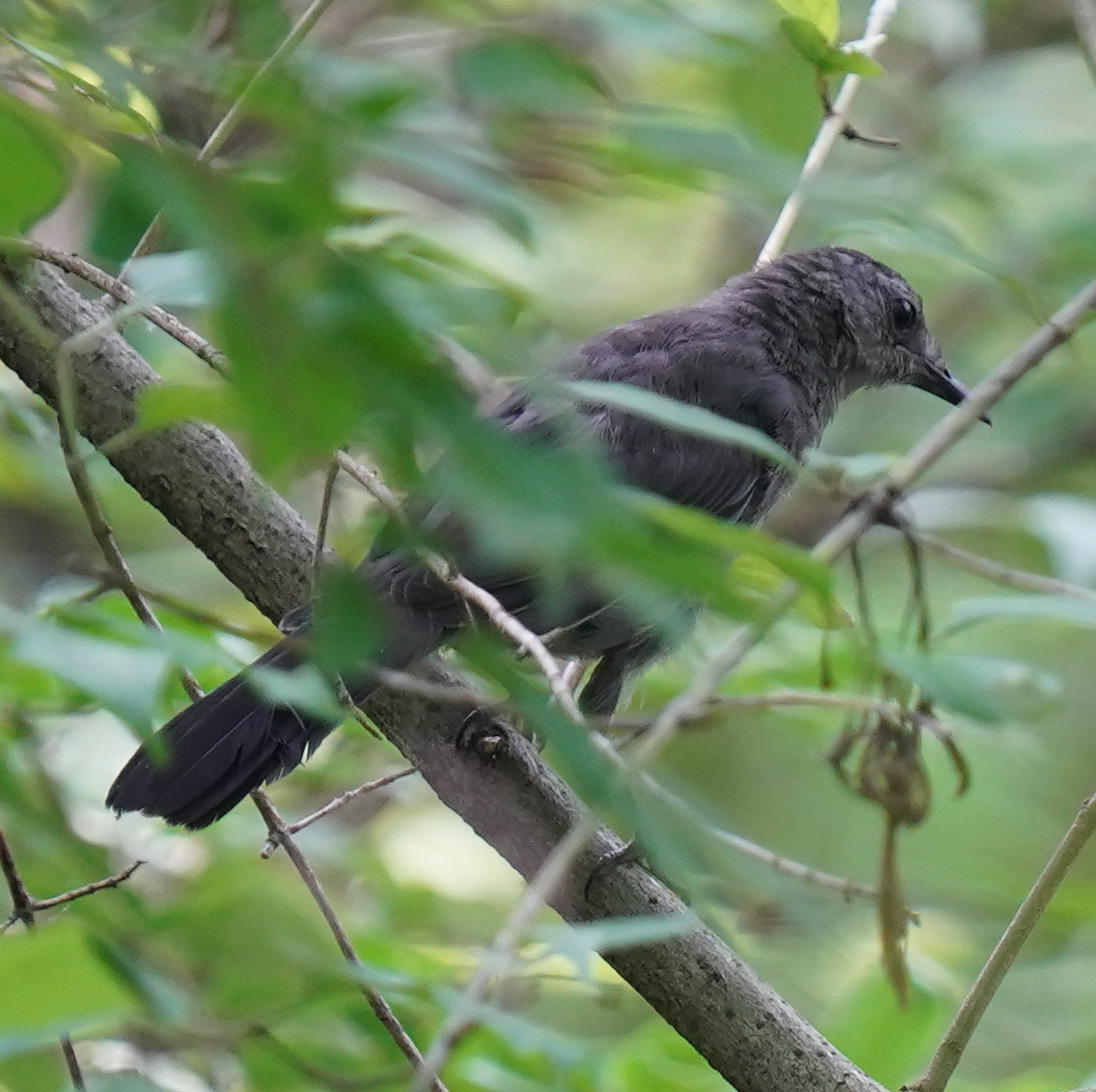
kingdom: Animalia
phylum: Chordata
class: Aves
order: Passeriformes
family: Mimidae
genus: Dumetella
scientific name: Dumetella carolinensis
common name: Gray catbird
